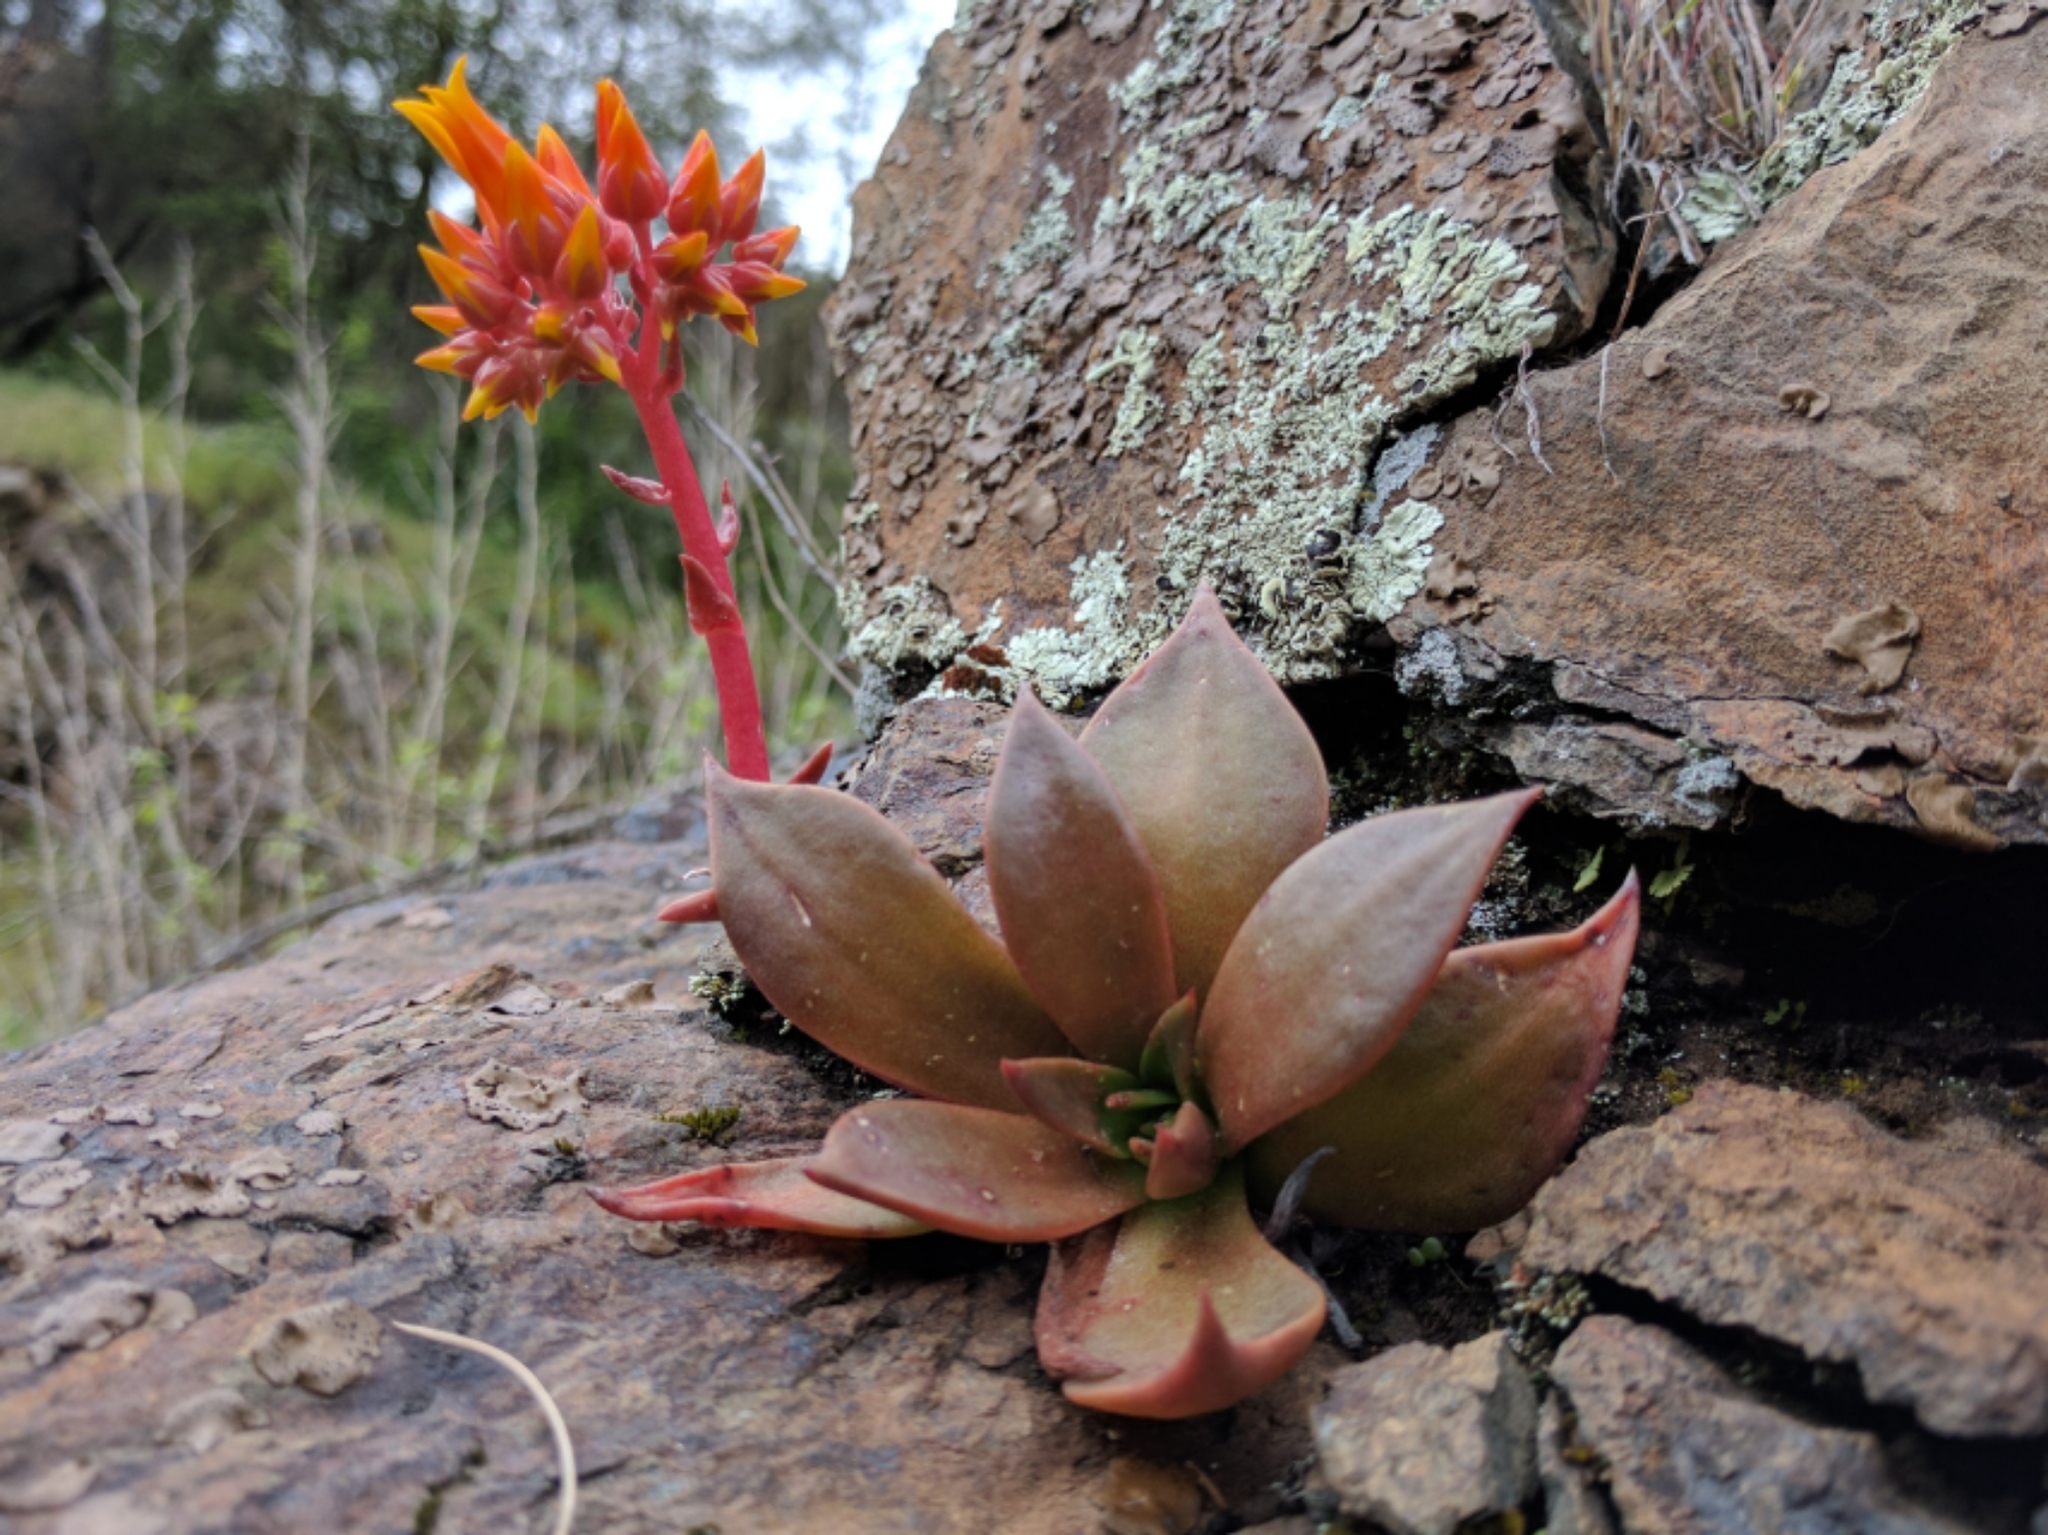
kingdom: Plantae
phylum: Tracheophyta
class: Magnoliopsida
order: Saxifragales
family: Crassulaceae
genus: Dudleya
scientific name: Dudleya cymosa
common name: Canyon dudleya
